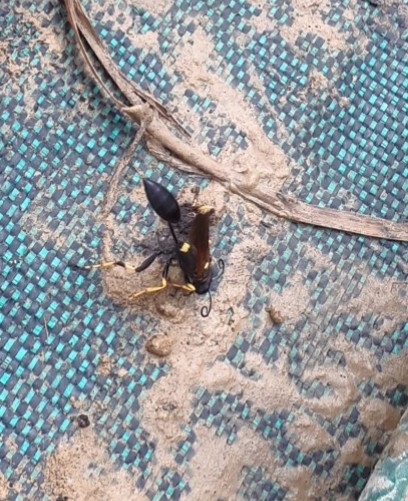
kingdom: Animalia
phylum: Arthropoda
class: Insecta
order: Hymenoptera
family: Sphecidae
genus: Sceliphron
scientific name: Sceliphron caementarium
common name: Mud dauber
